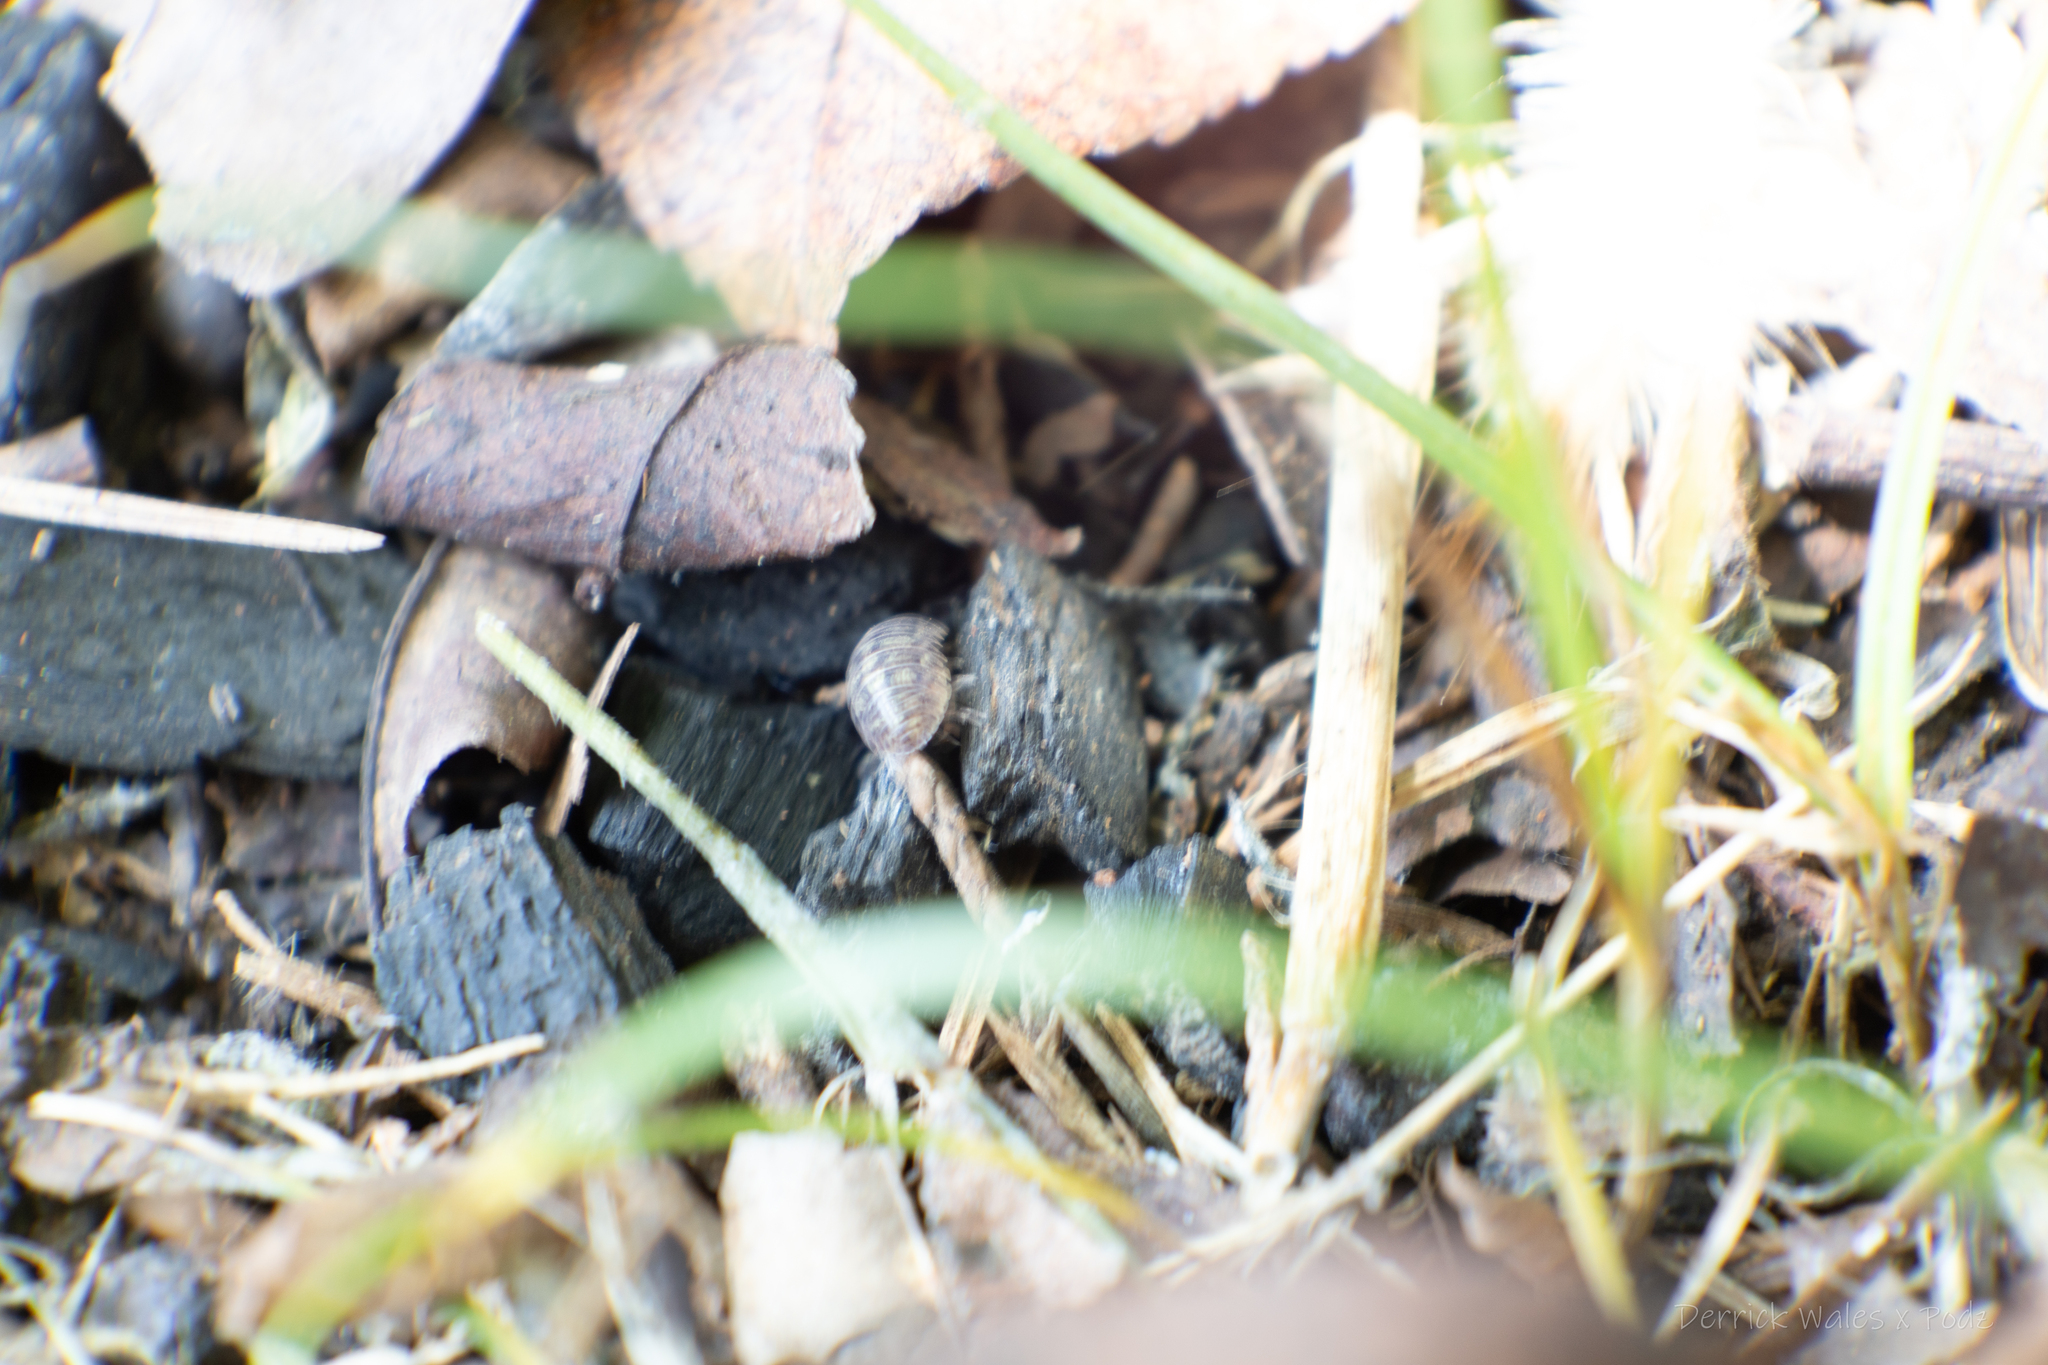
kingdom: Animalia
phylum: Arthropoda
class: Malacostraca
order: Isopoda
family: Armadillidiidae
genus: Armadillidium
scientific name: Armadillidium vulgare
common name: Common pill woodlouse
